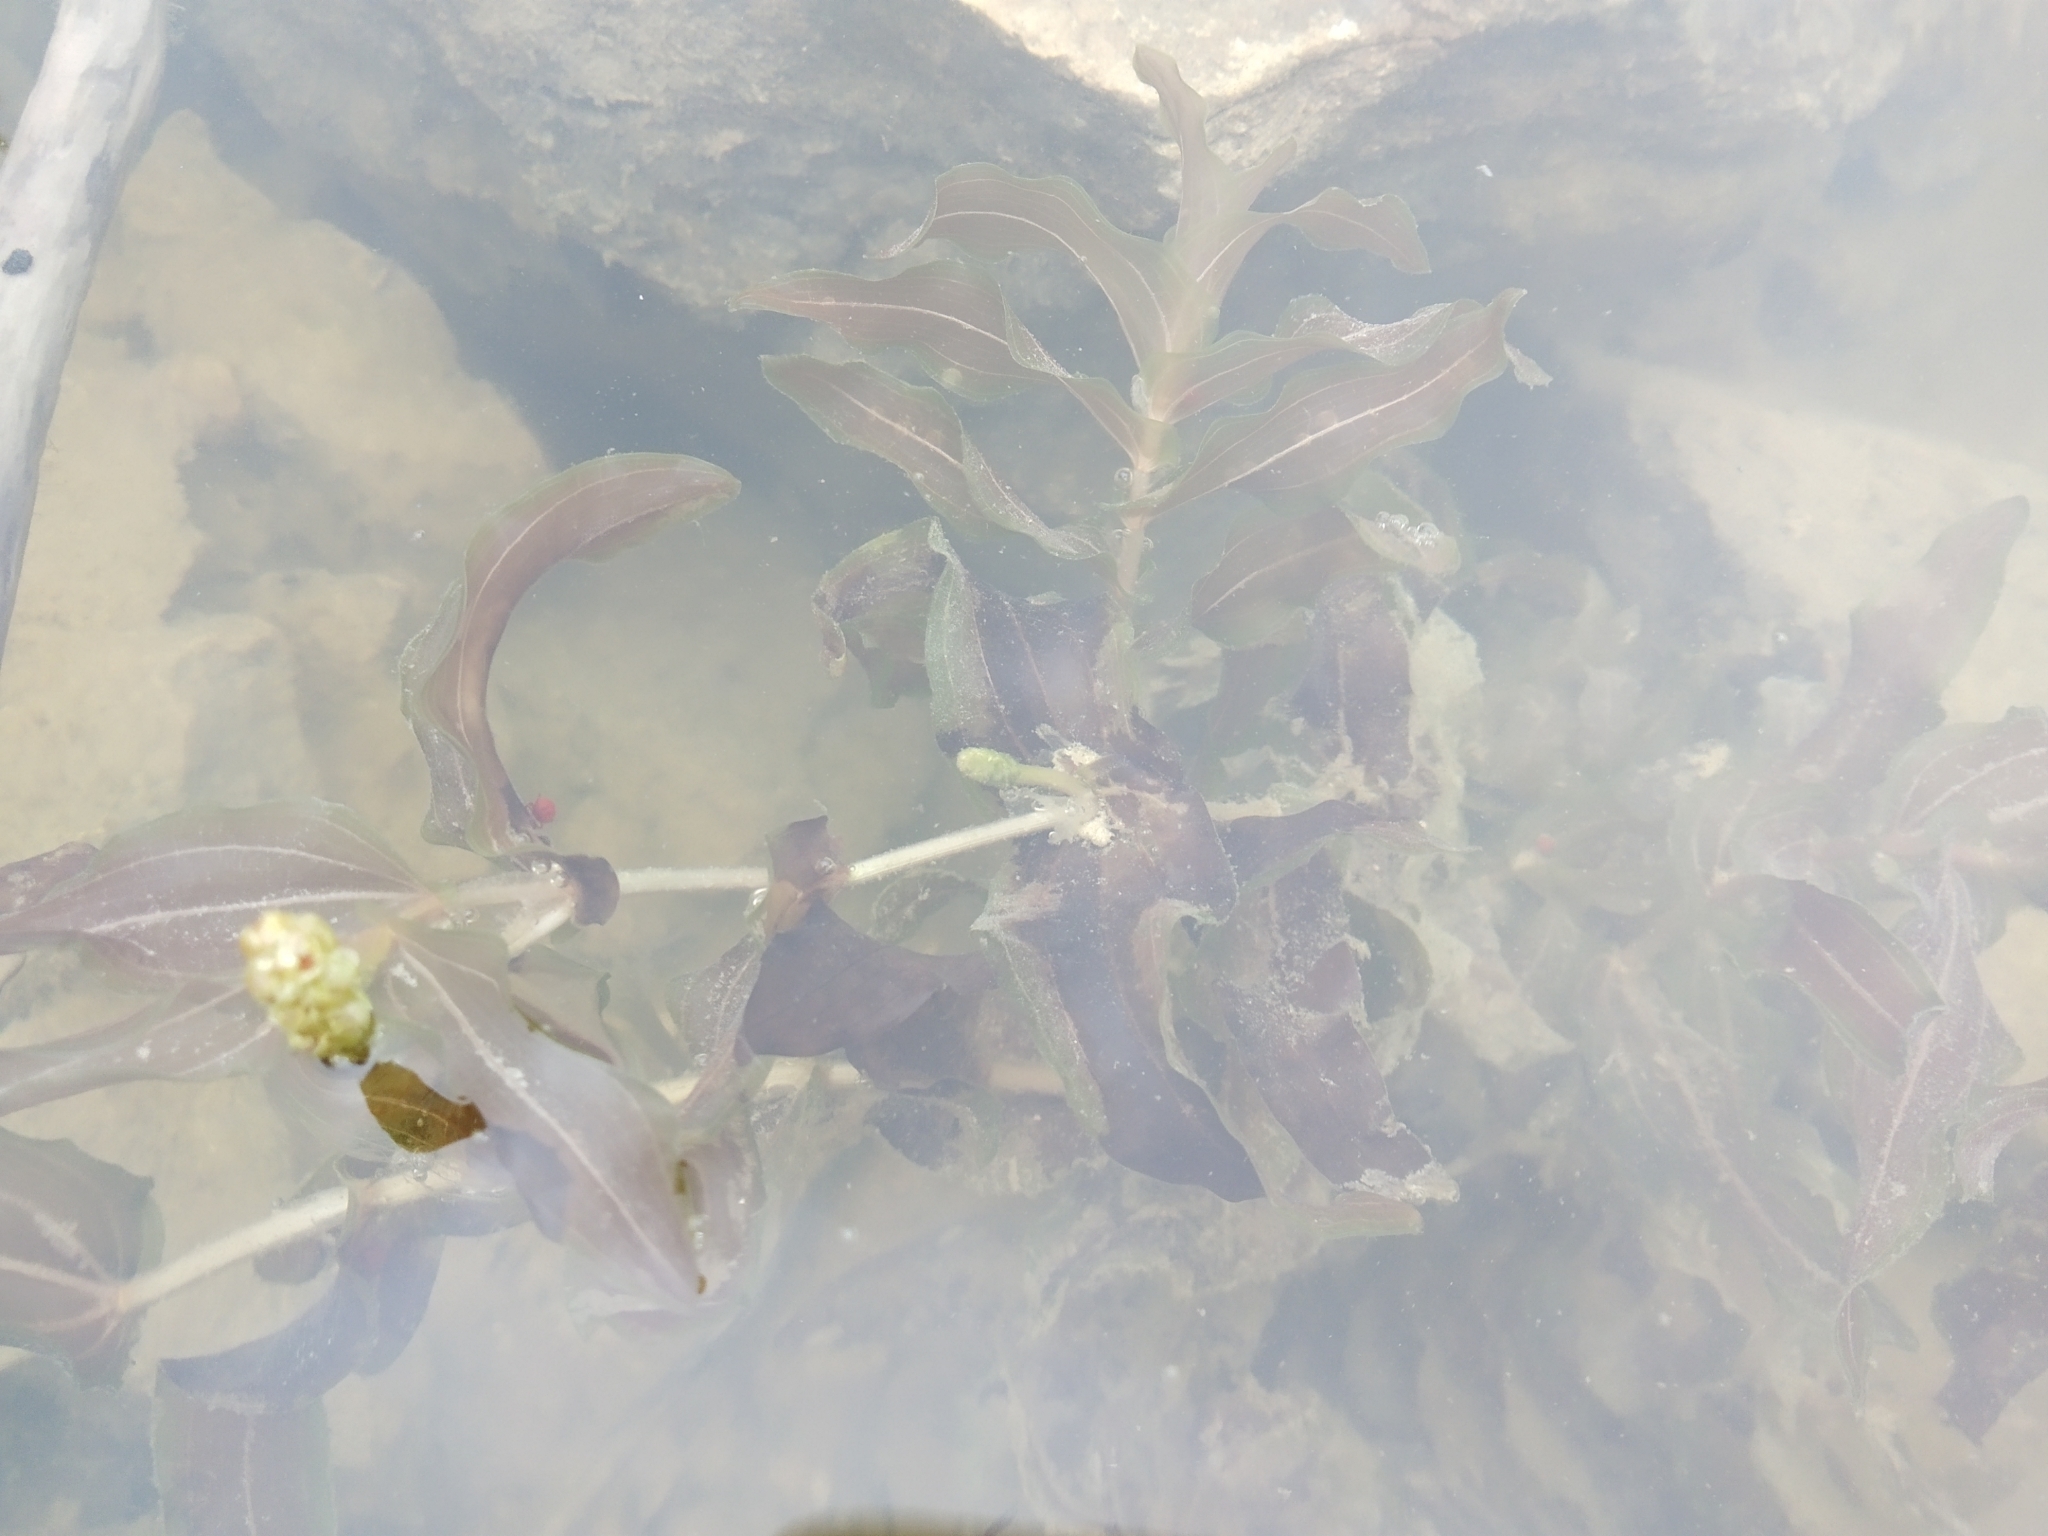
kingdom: Plantae
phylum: Tracheophyta
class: Liliopsida
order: Alismatales
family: Potamogetonaceae
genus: Potamogeton
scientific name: Potamogeton perfoliatus
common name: Perfoliate pondweed
